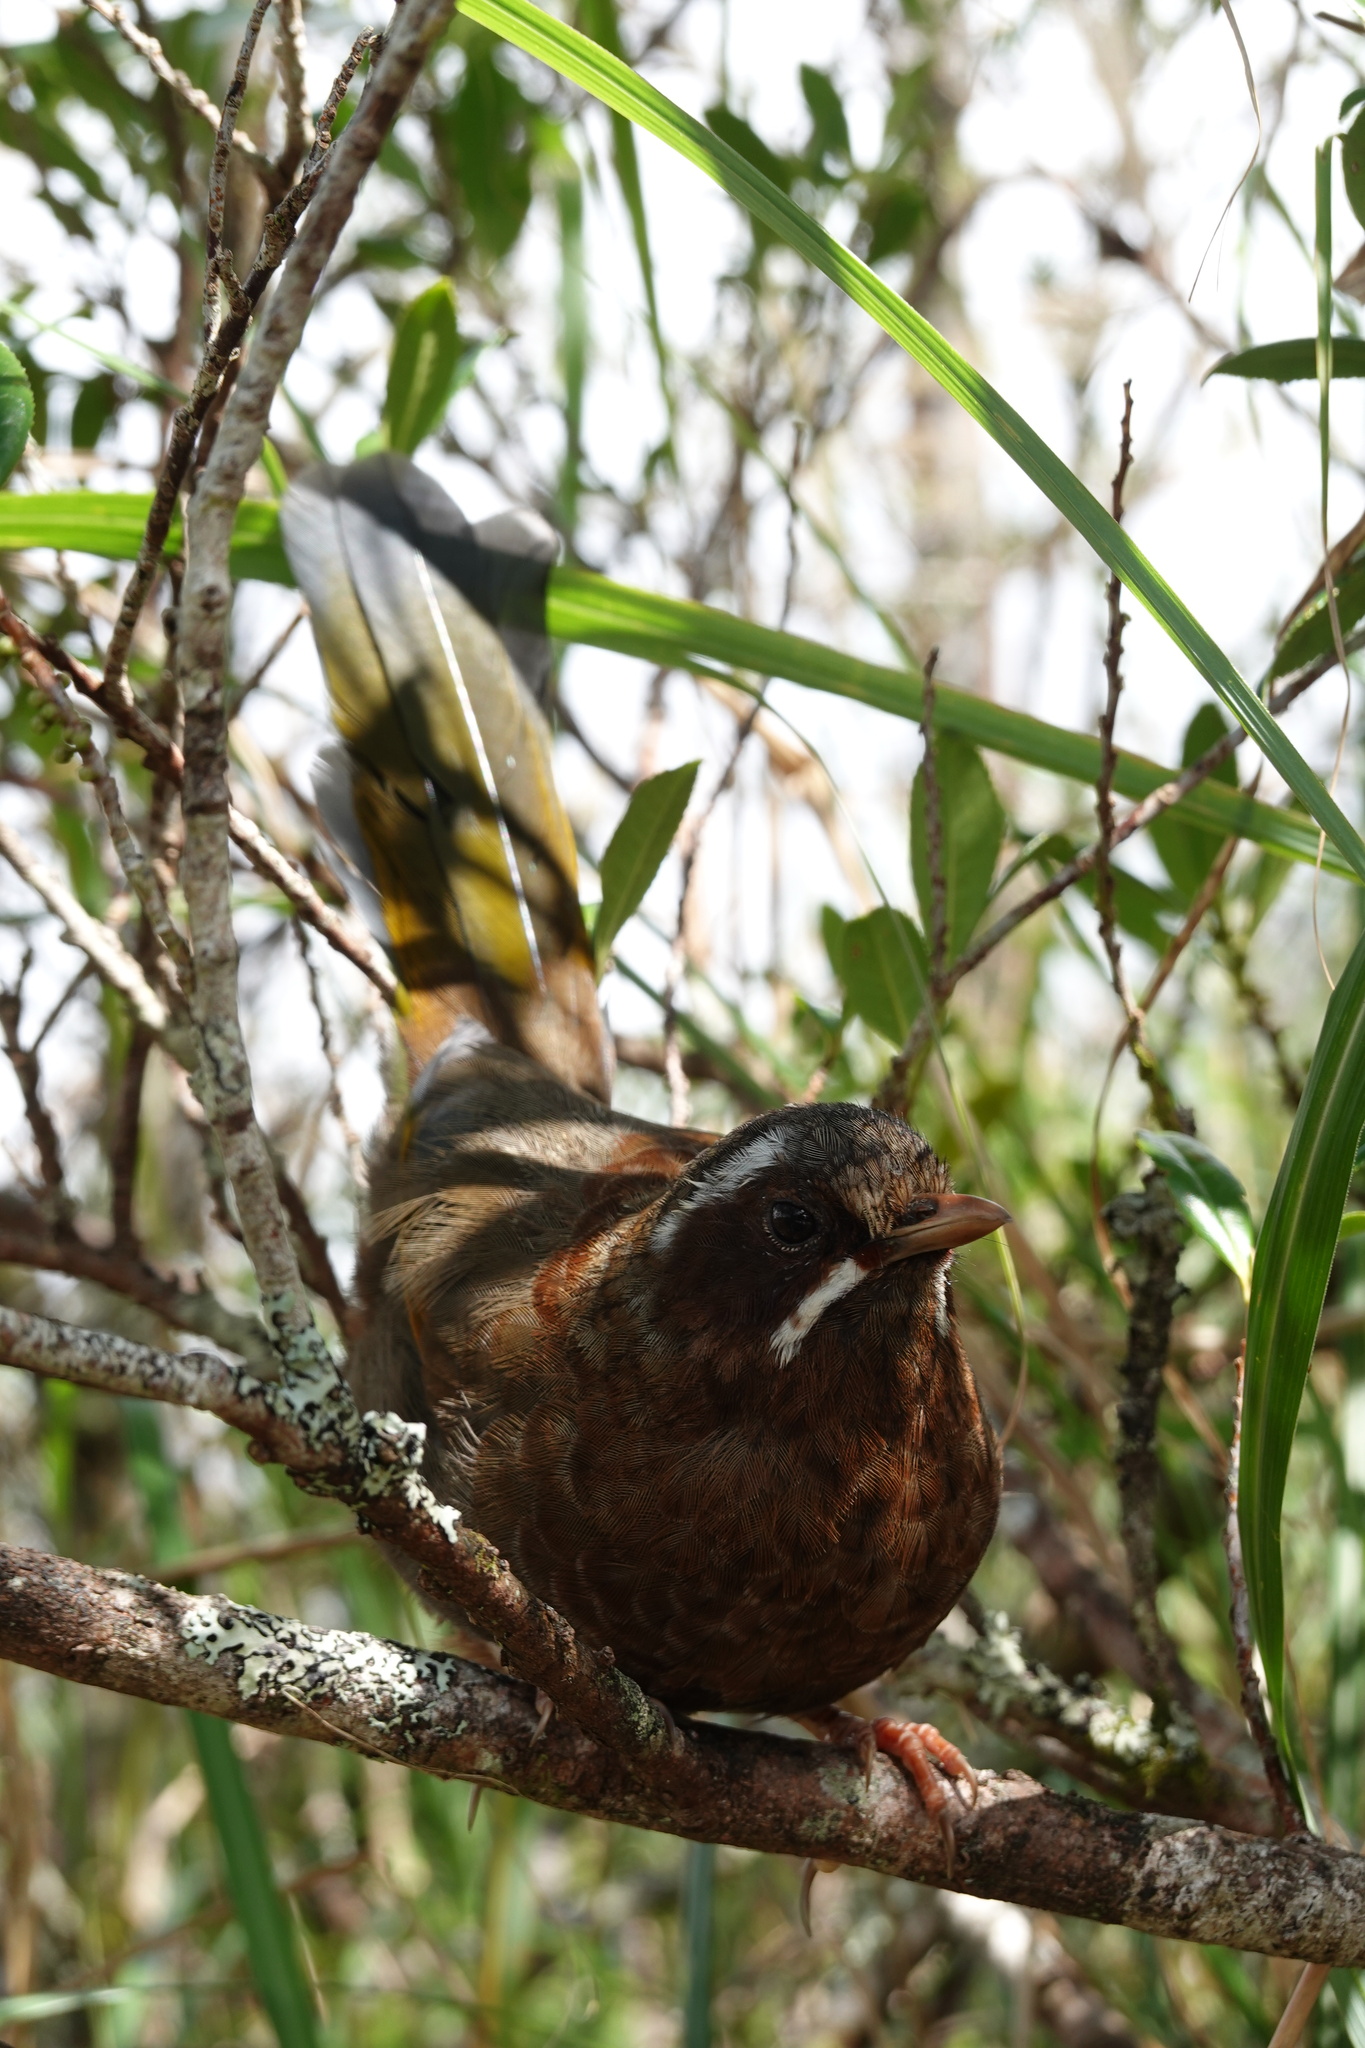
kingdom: Animalia
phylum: Chordata
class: Aves
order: Passeriformes
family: Leiothrichidae
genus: Trochalopteron
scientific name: Trochalopteron morrisonianum
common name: White-whiskered laughingthrush
